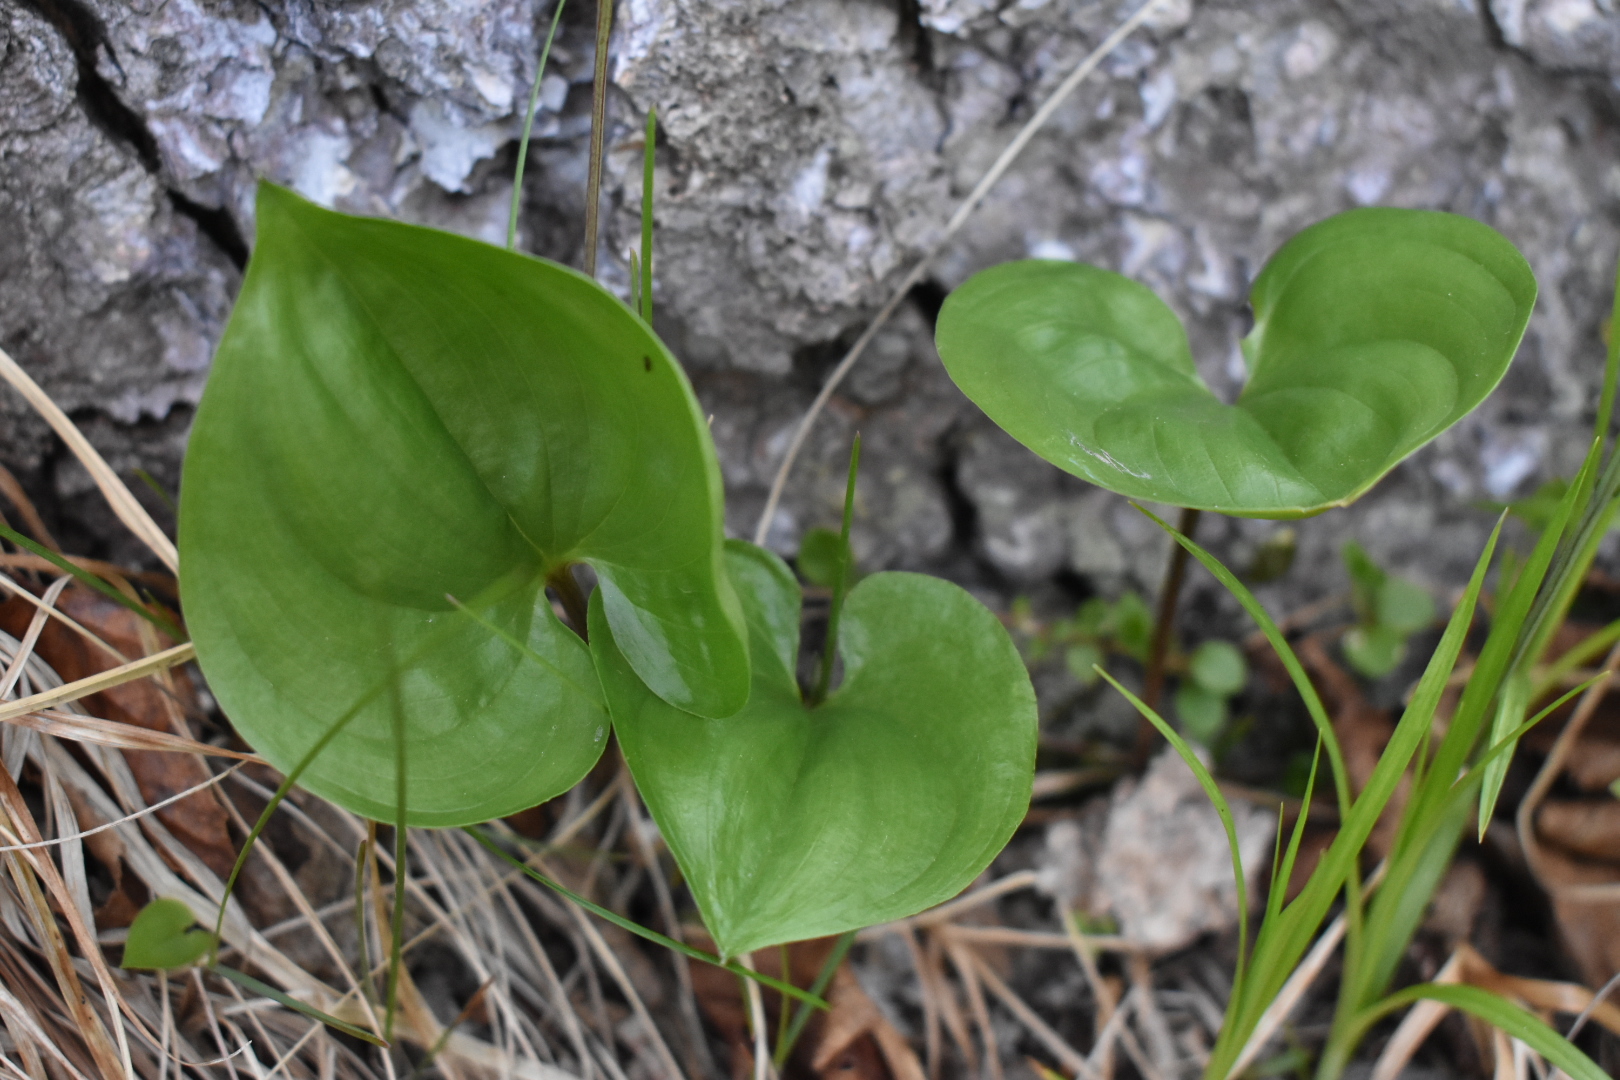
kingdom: Plantae
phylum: Tracheophyta
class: Liliopsida
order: Asparagales
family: Asparagaceae
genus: Maianthemum
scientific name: Maianthemum dilatatum
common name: False lily-of-the-valley
